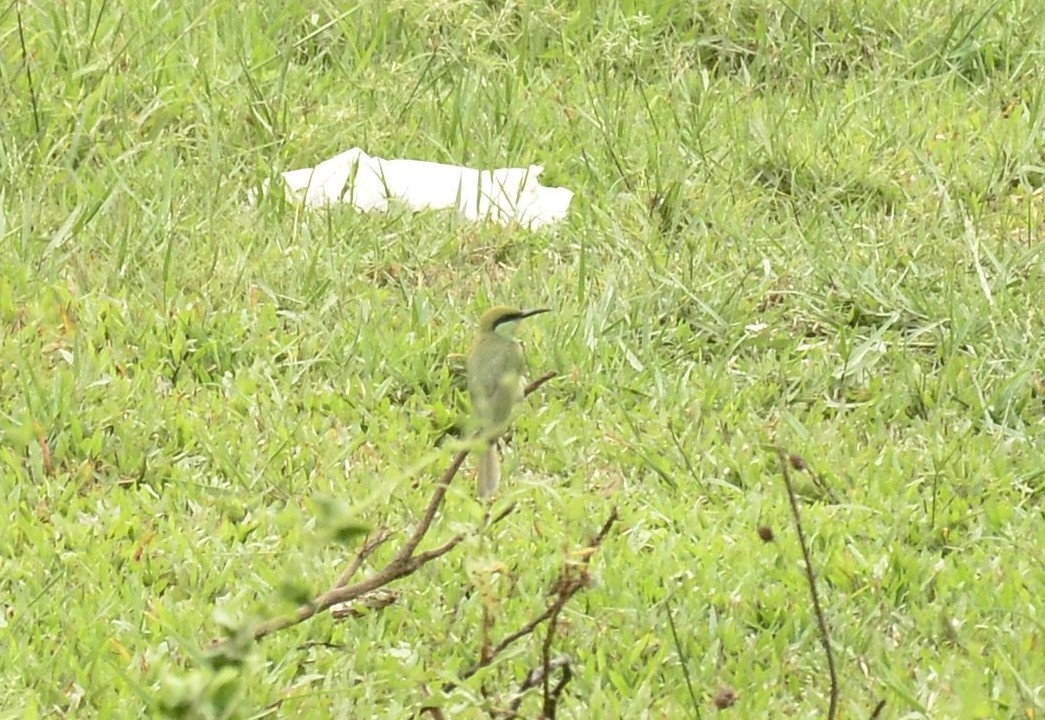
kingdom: Animalia
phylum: Chordata
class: Aves
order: Coraciiformes
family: Meropidae
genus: Merops
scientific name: Merops orientalis
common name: Green bee-eater
